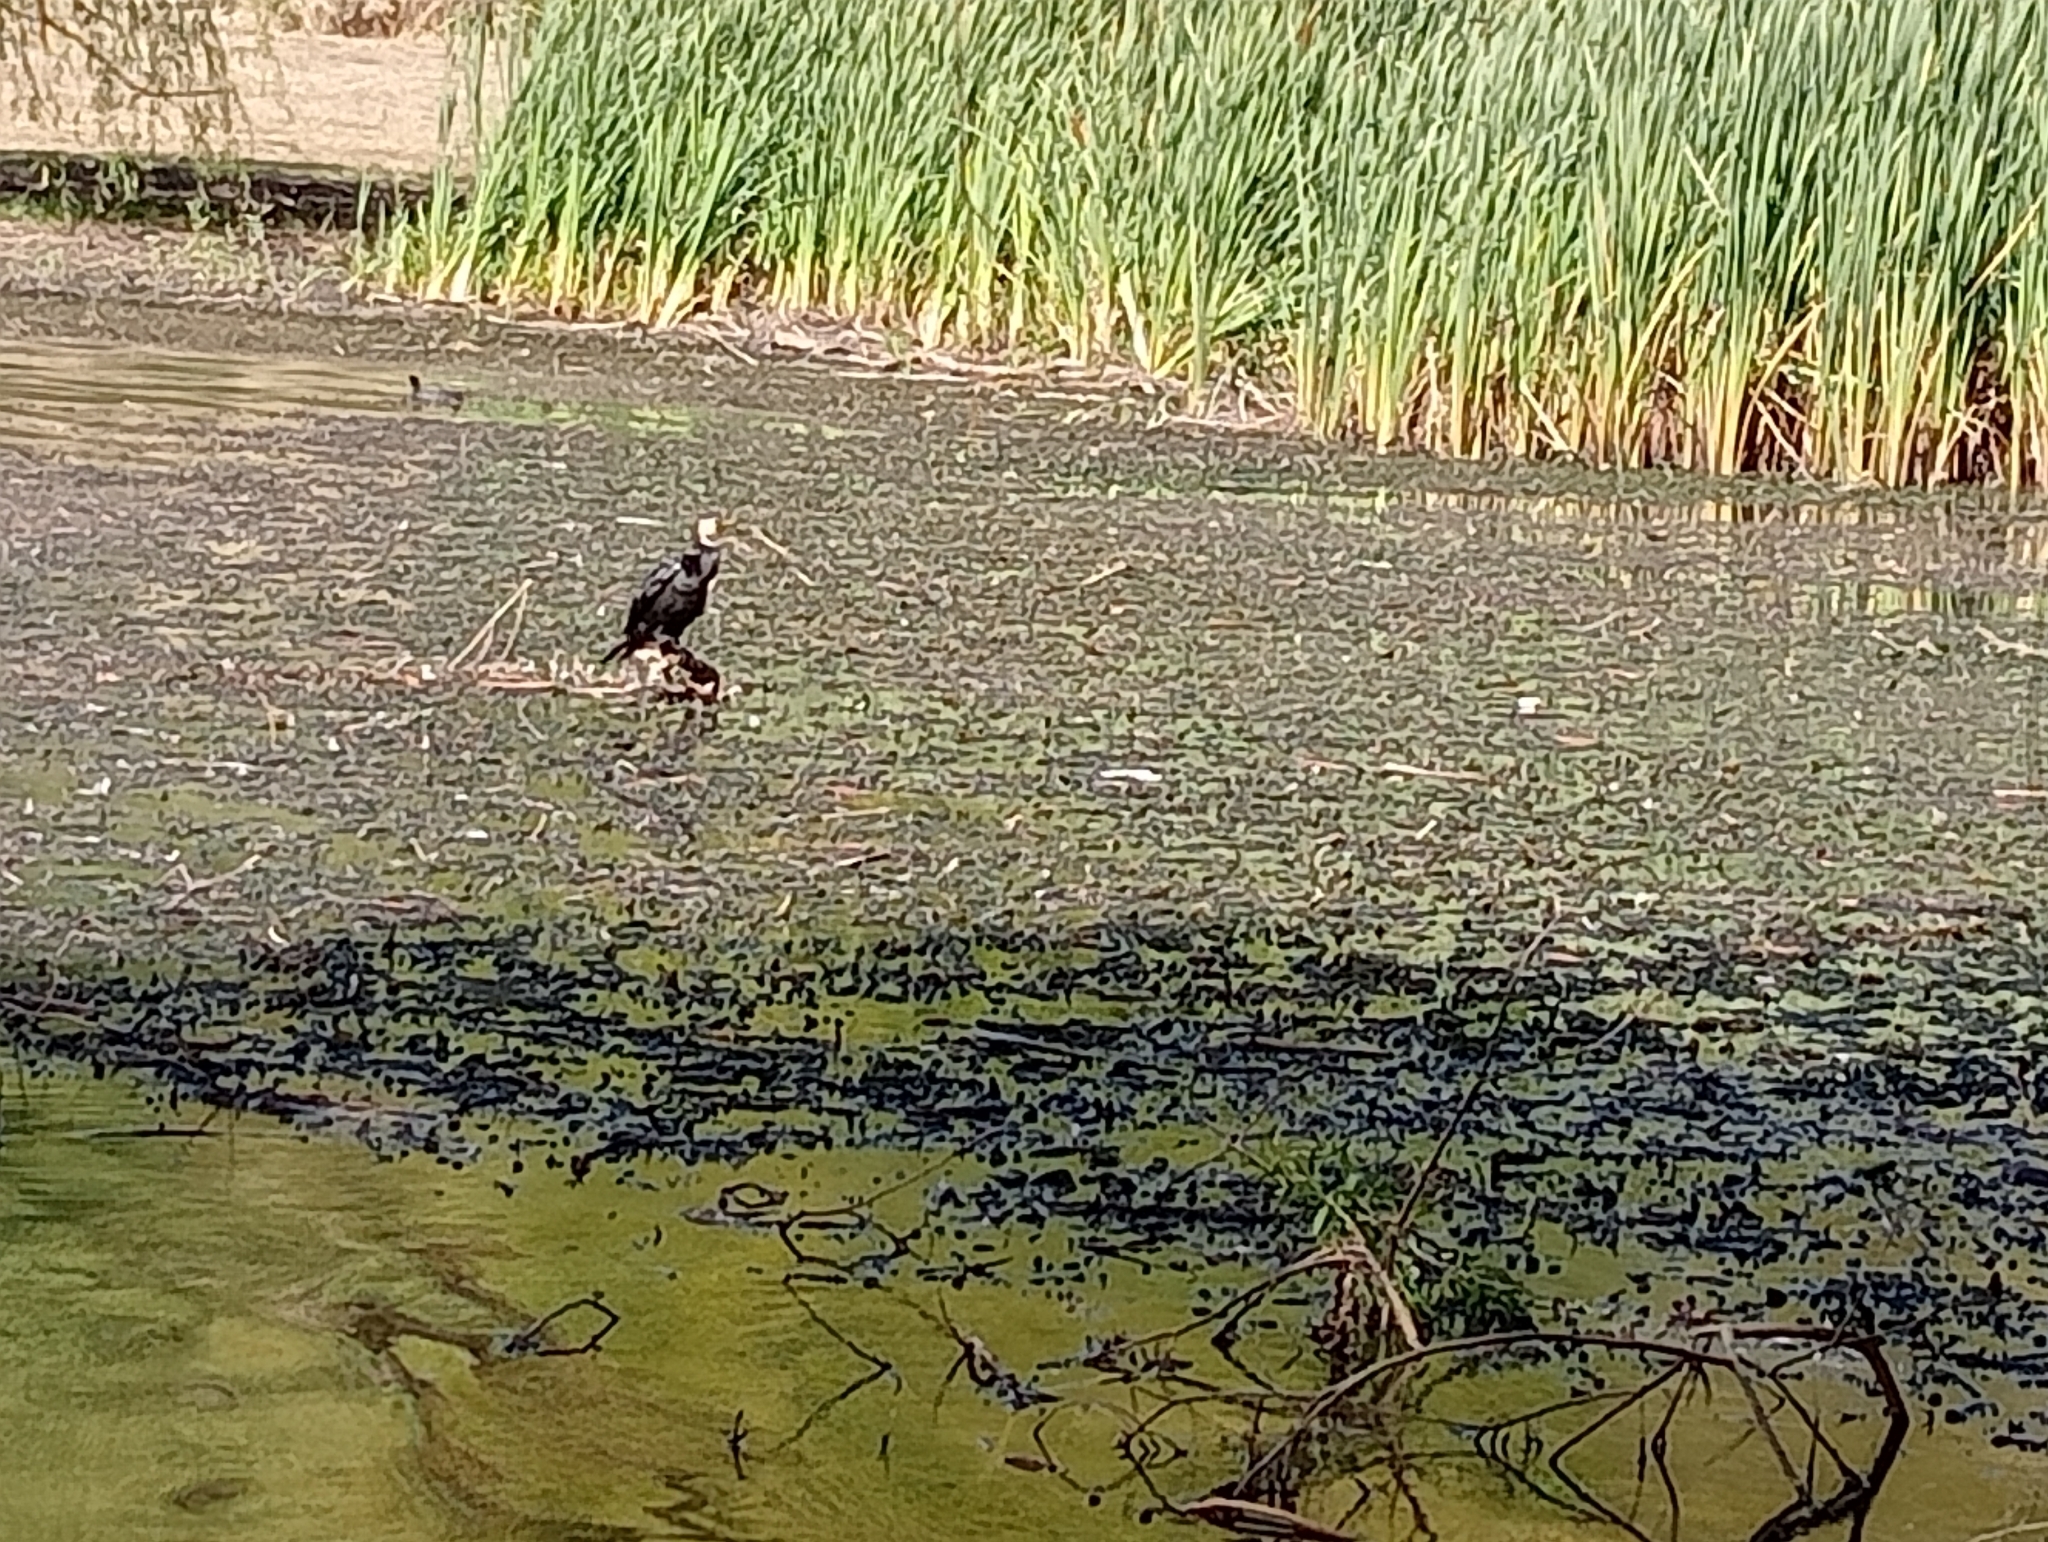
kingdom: Animalia
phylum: Chordata
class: Aves
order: Suliformes
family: Phalacrocoracidae
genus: Microcarbo
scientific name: Microcarbo melanoleucos
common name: Little pied cormorant
